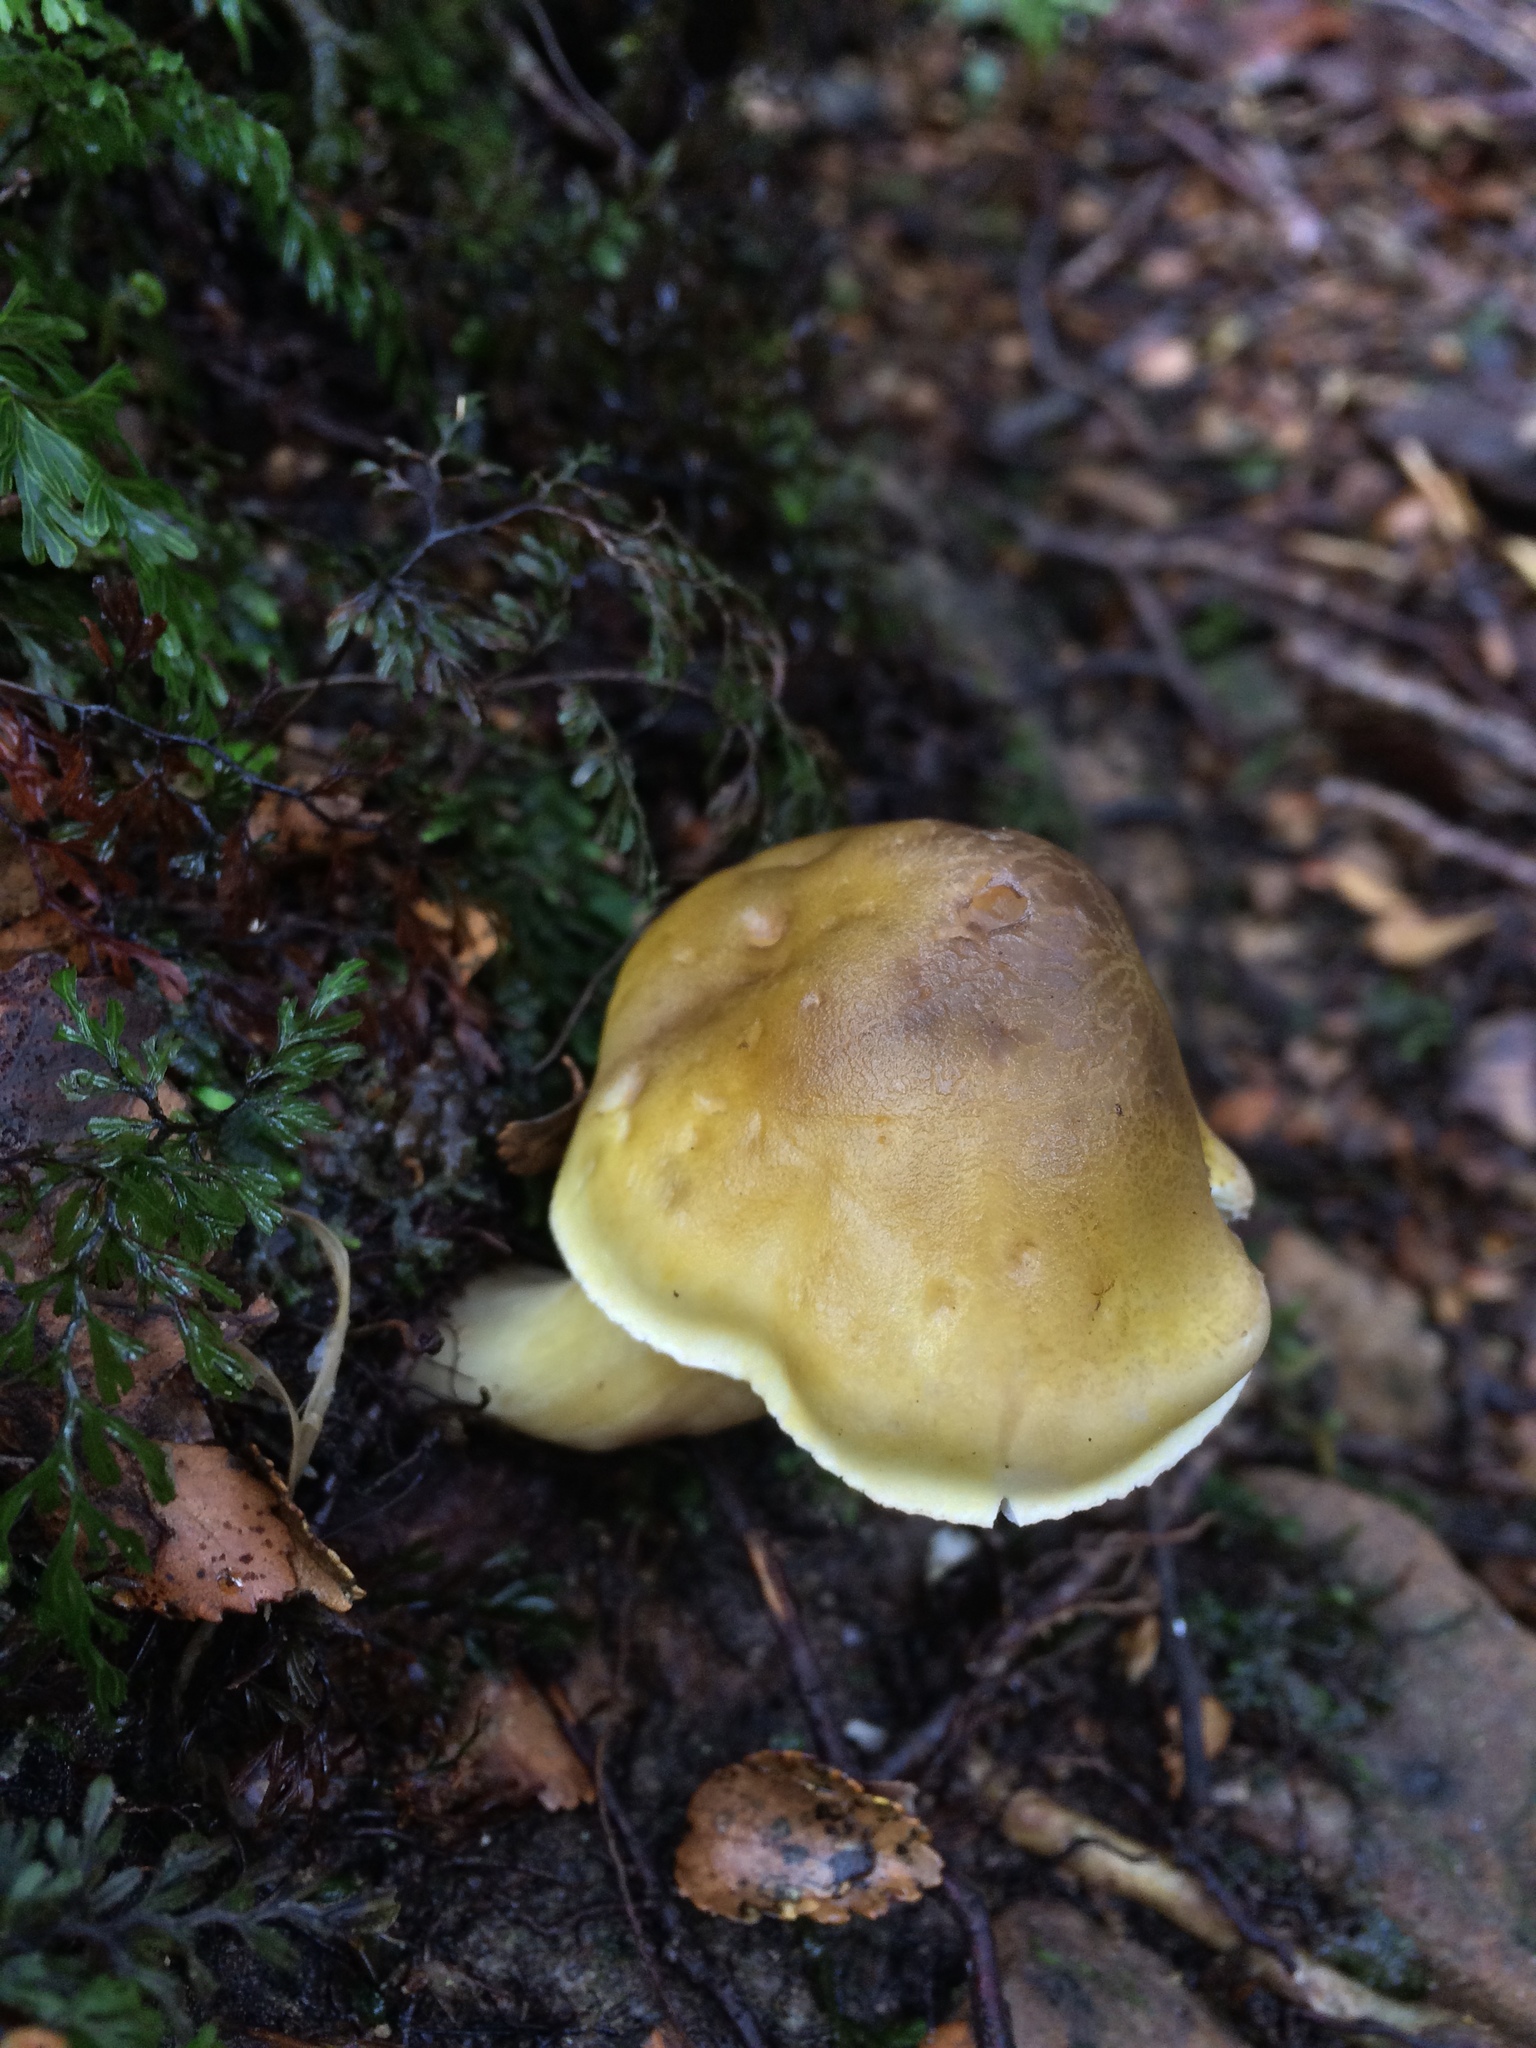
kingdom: Fungi
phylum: Basidiomycota
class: Agaricomycetes
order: Agaricales
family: Tricholomataceae
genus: Tricholoma
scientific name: Tricholoma viridiolivaceum
